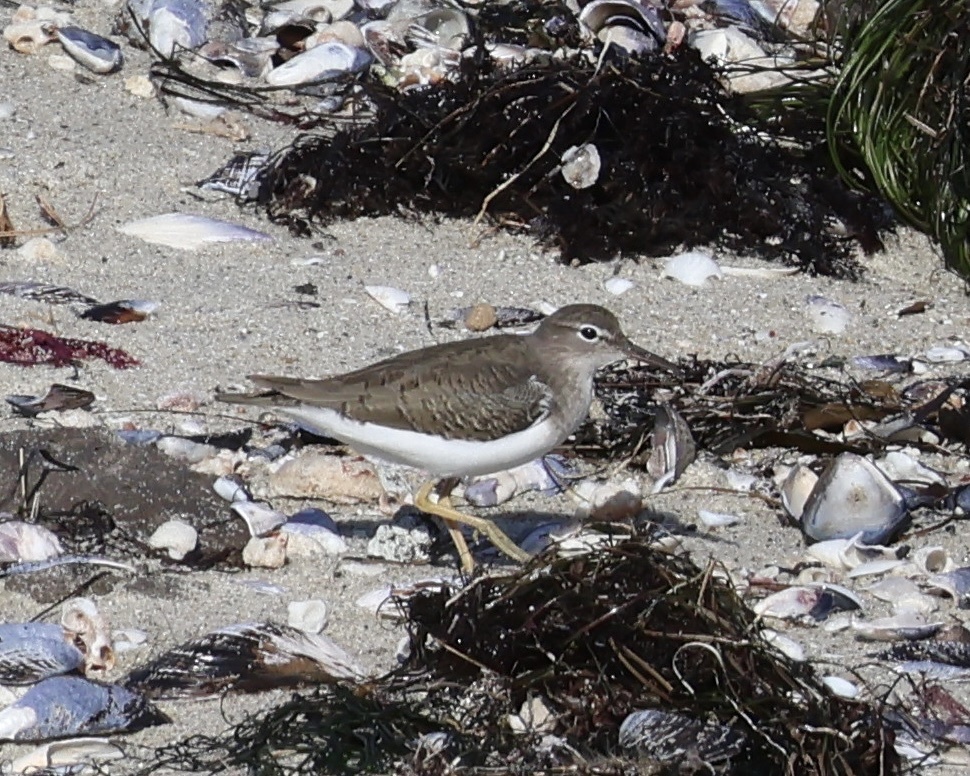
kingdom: Animalia
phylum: Chordata
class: Aves
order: Charadriiformes
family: Scolopacidae
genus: Actitis
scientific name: Actitis macularius
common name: Spotted sandpiper
